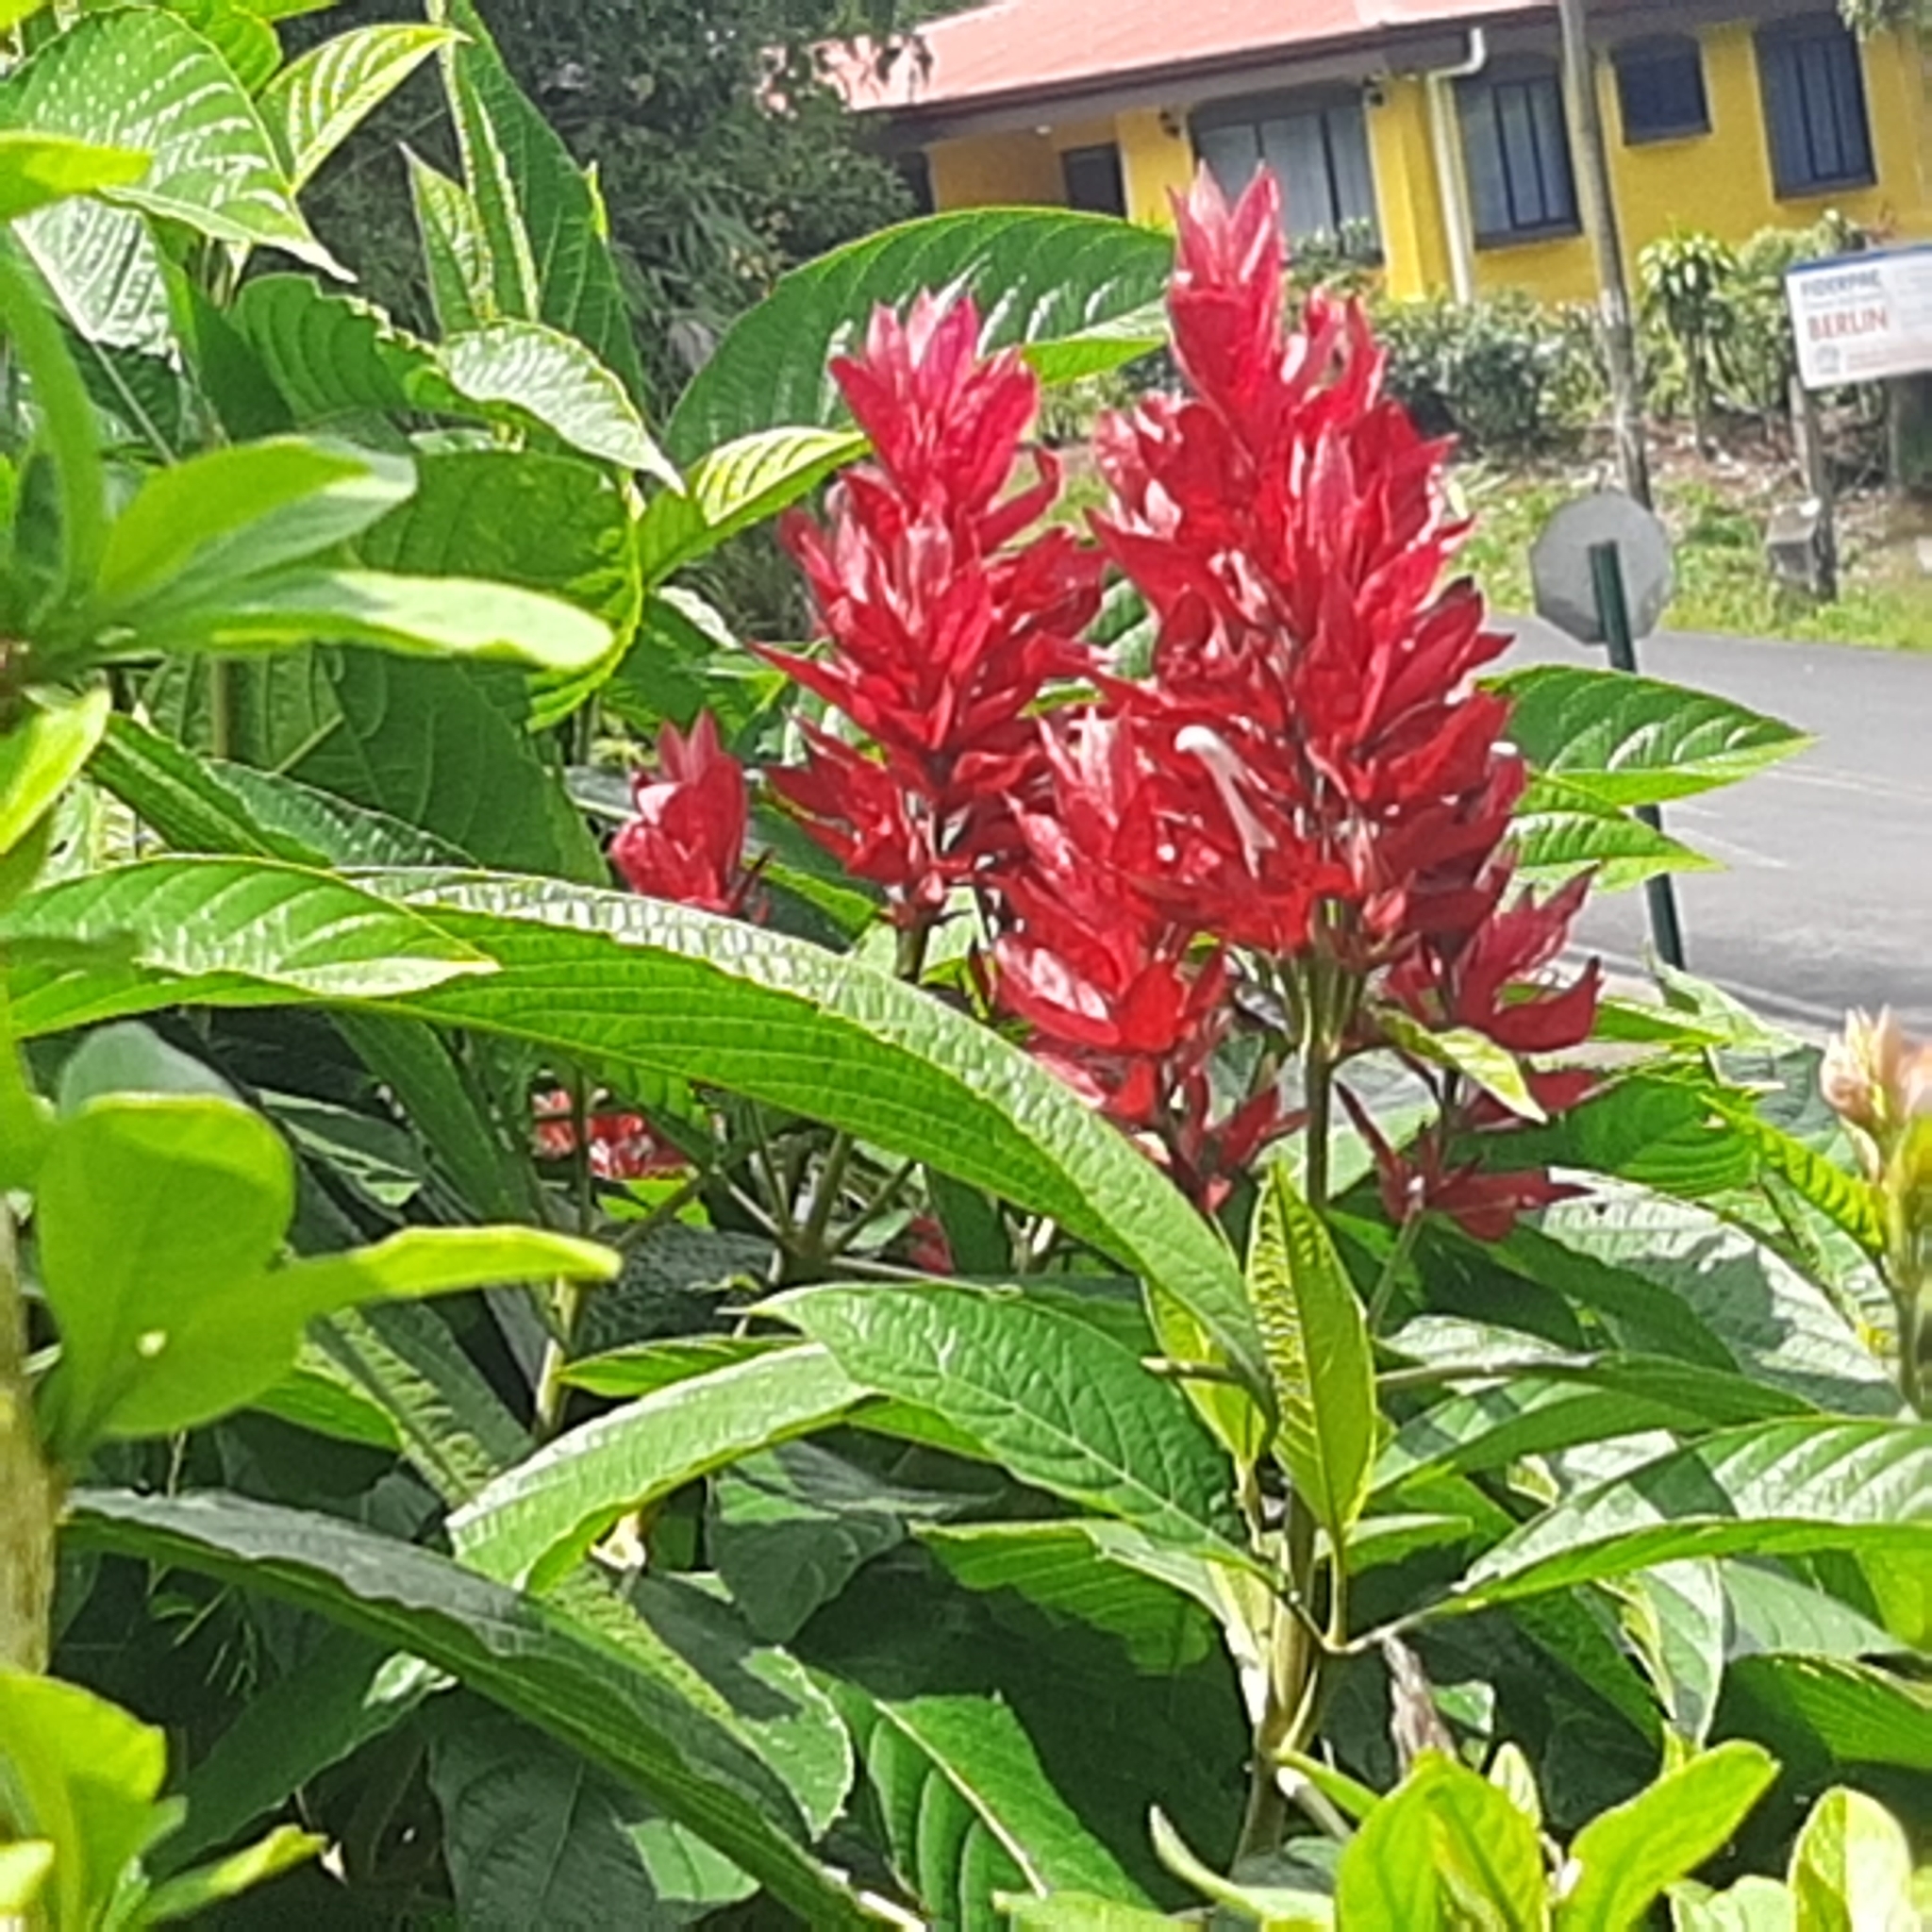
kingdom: Plantae
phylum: Tracheophyta
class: Magnoliopsida
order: Lamiales
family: Acanthaceae
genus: Megaskepasma
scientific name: Megaskepasma erythrochlamys
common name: Brazilian red-cloak
